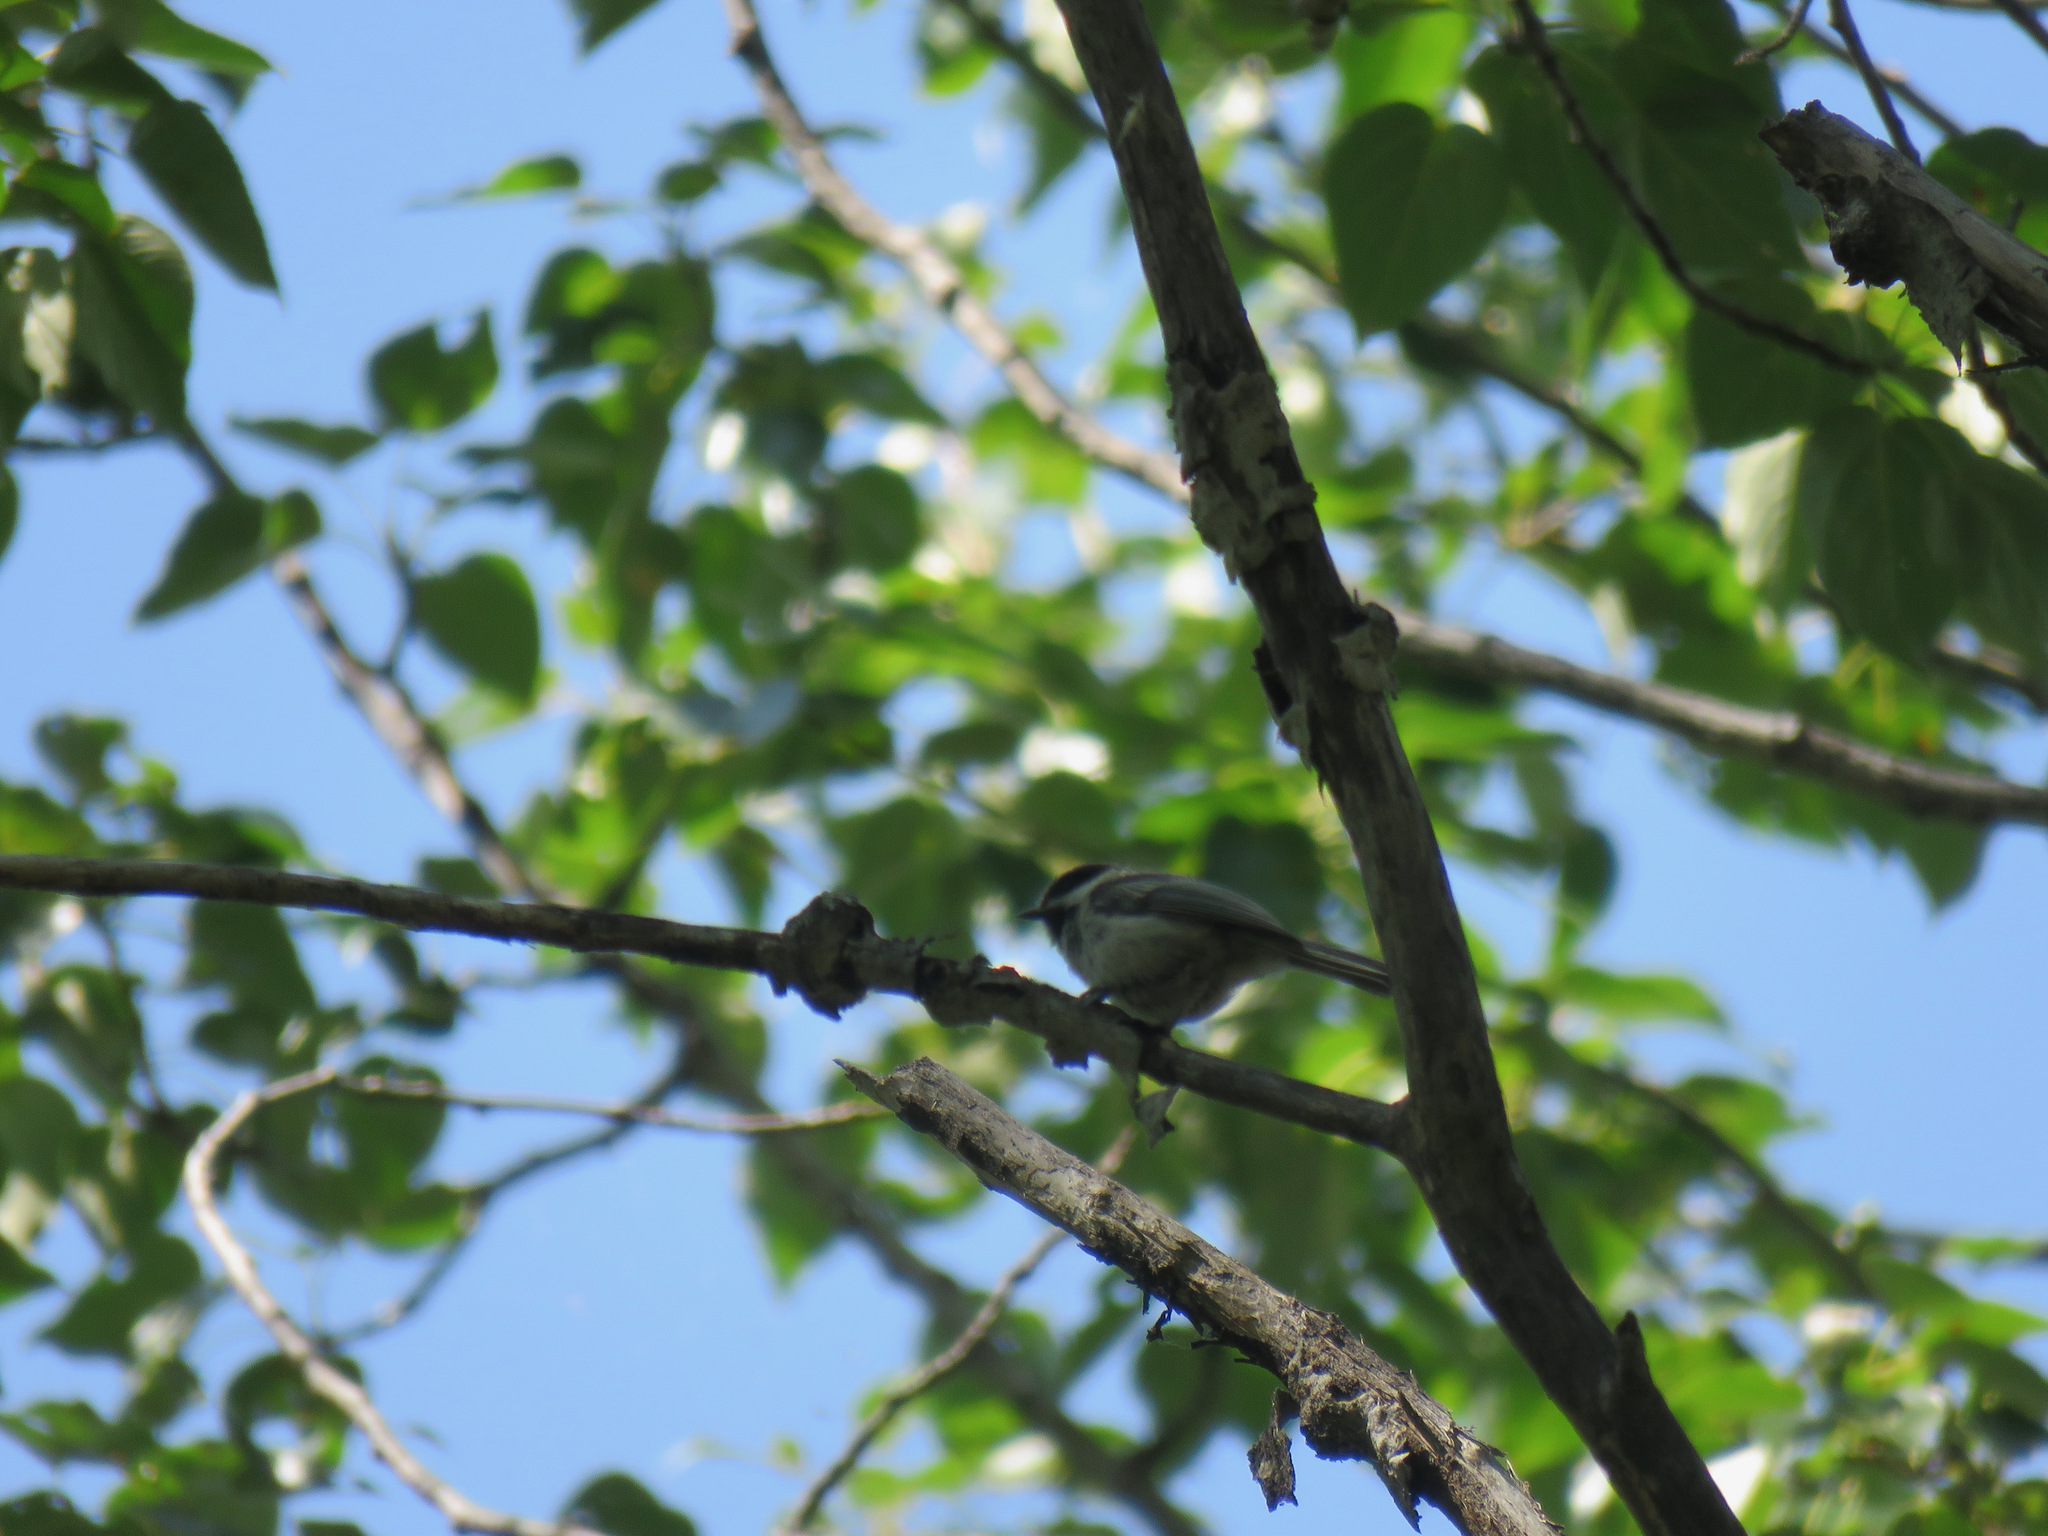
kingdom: Animalia
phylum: Chordata
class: Aves
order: Passeriformes
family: Paridae
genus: Poecile
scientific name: Poecile atricapillus
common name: Black-capped chickadee
